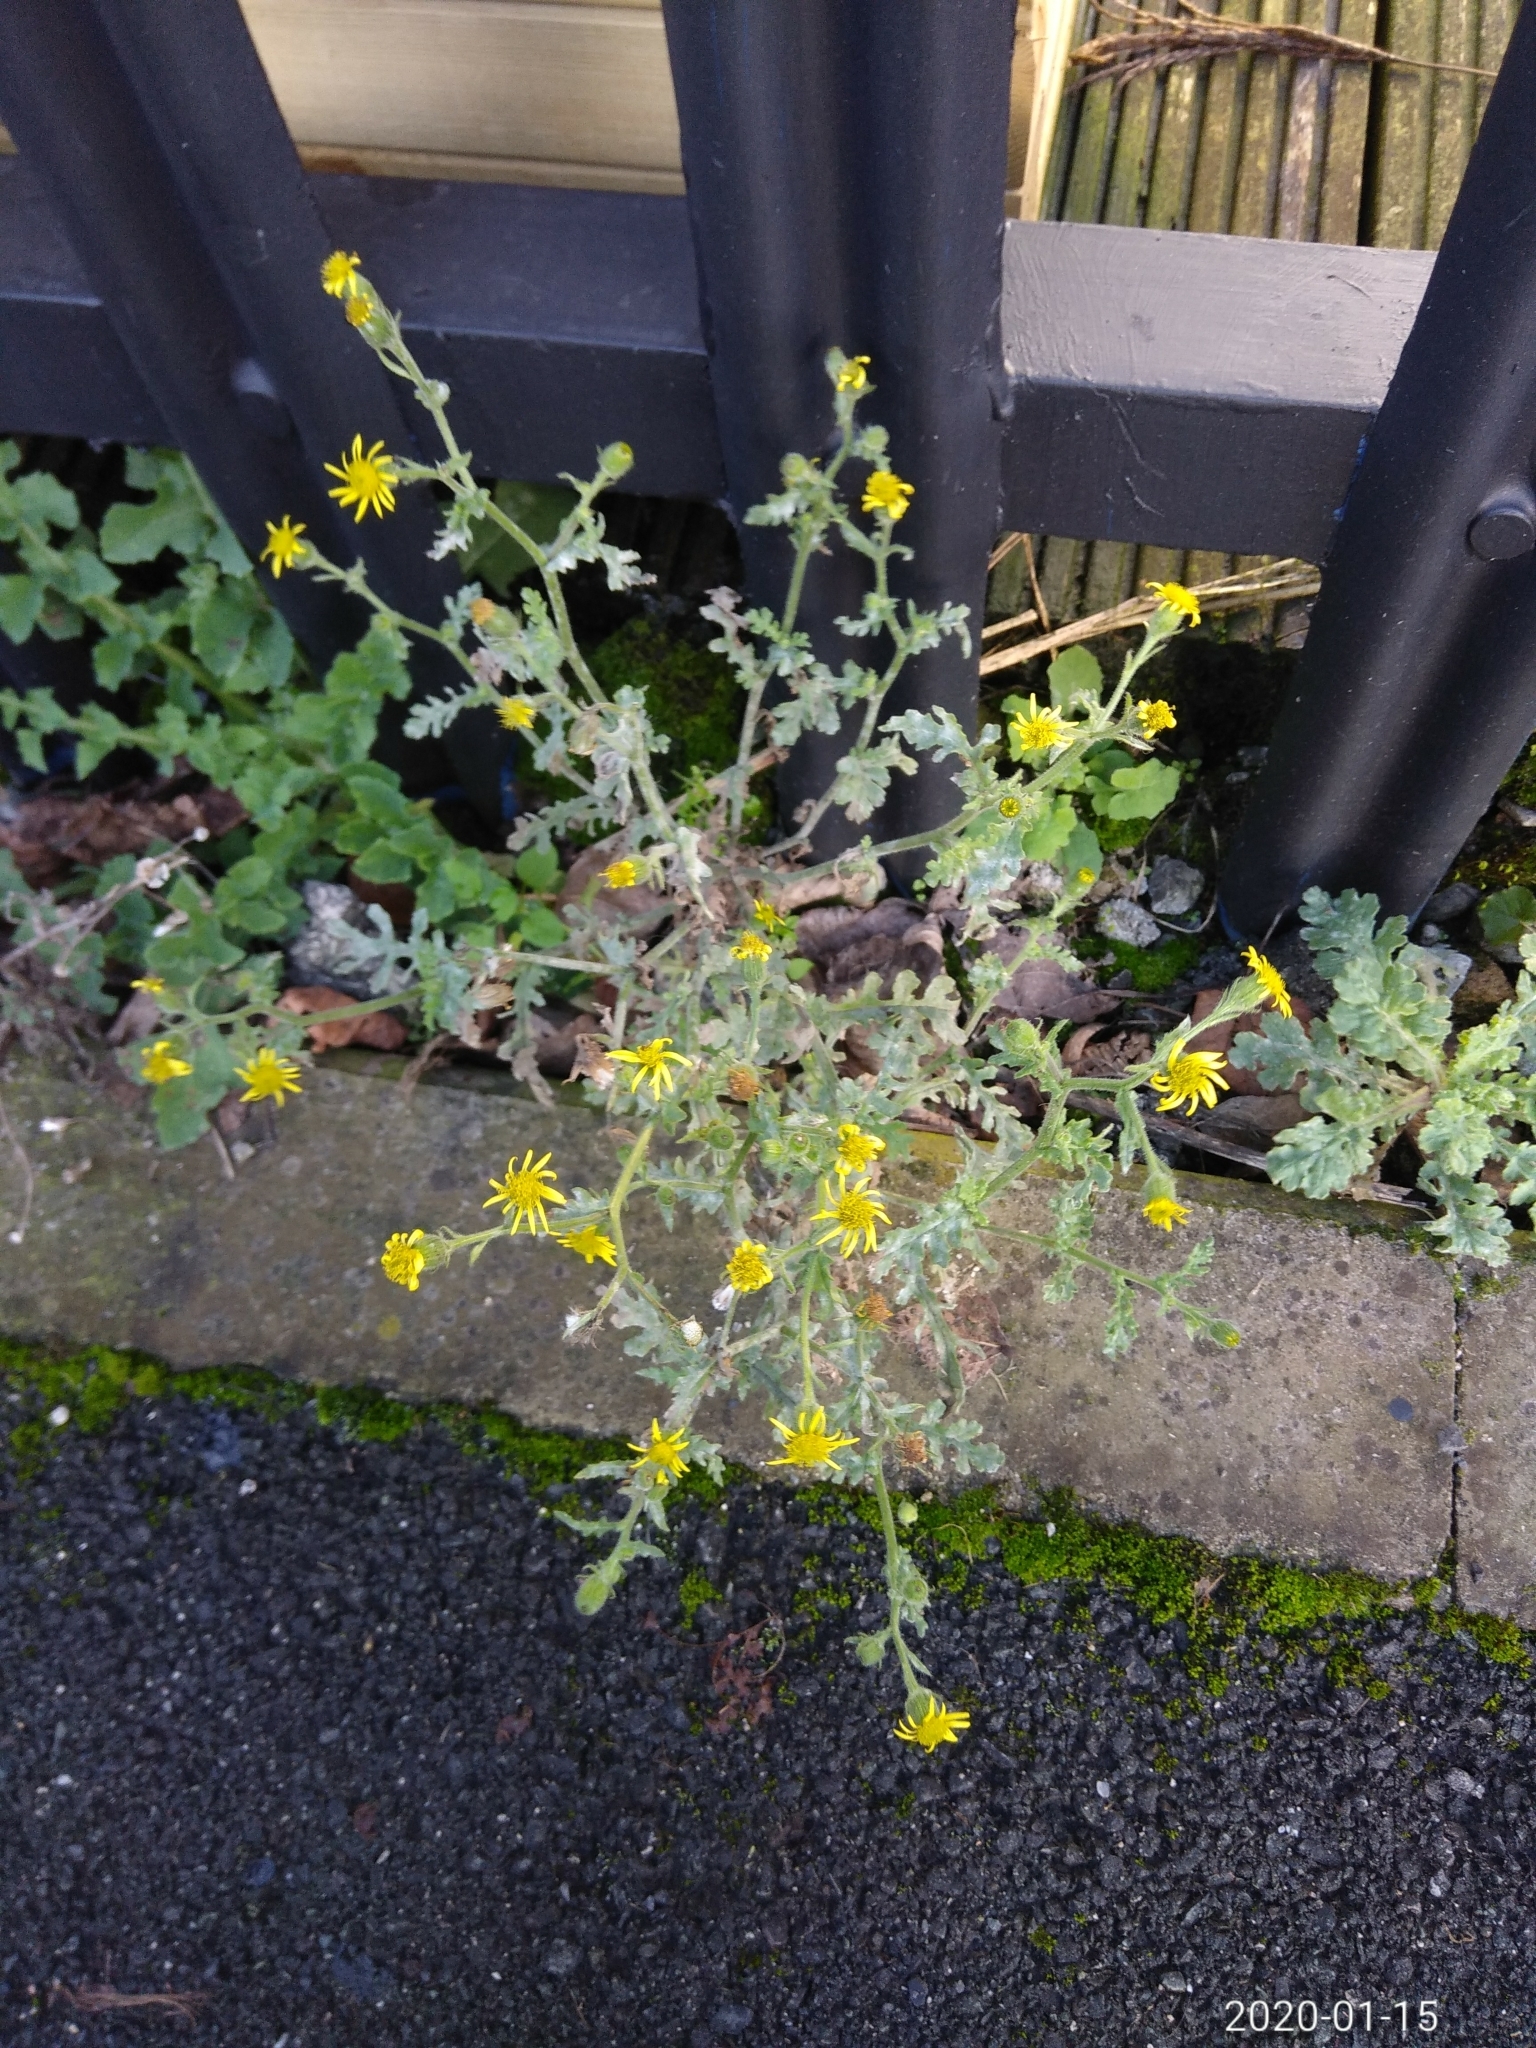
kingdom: Plantae
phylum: Tracheophyta
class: Magnoliopsida
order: Asterales
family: Asteraceae
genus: Senecio
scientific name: Senecio viscosus
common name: Sticky groundsel
